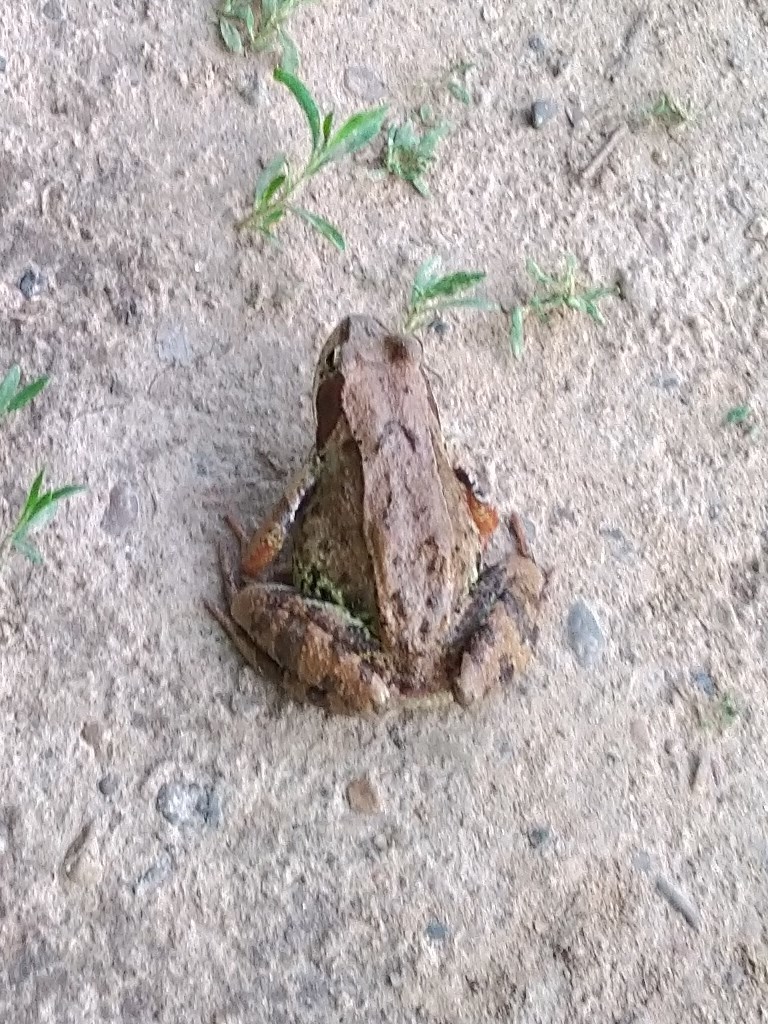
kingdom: Animalia
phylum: Chordata
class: Amphibia
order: Anura
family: Ranidae
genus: Rana
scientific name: Rana temporaria
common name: Common frog
